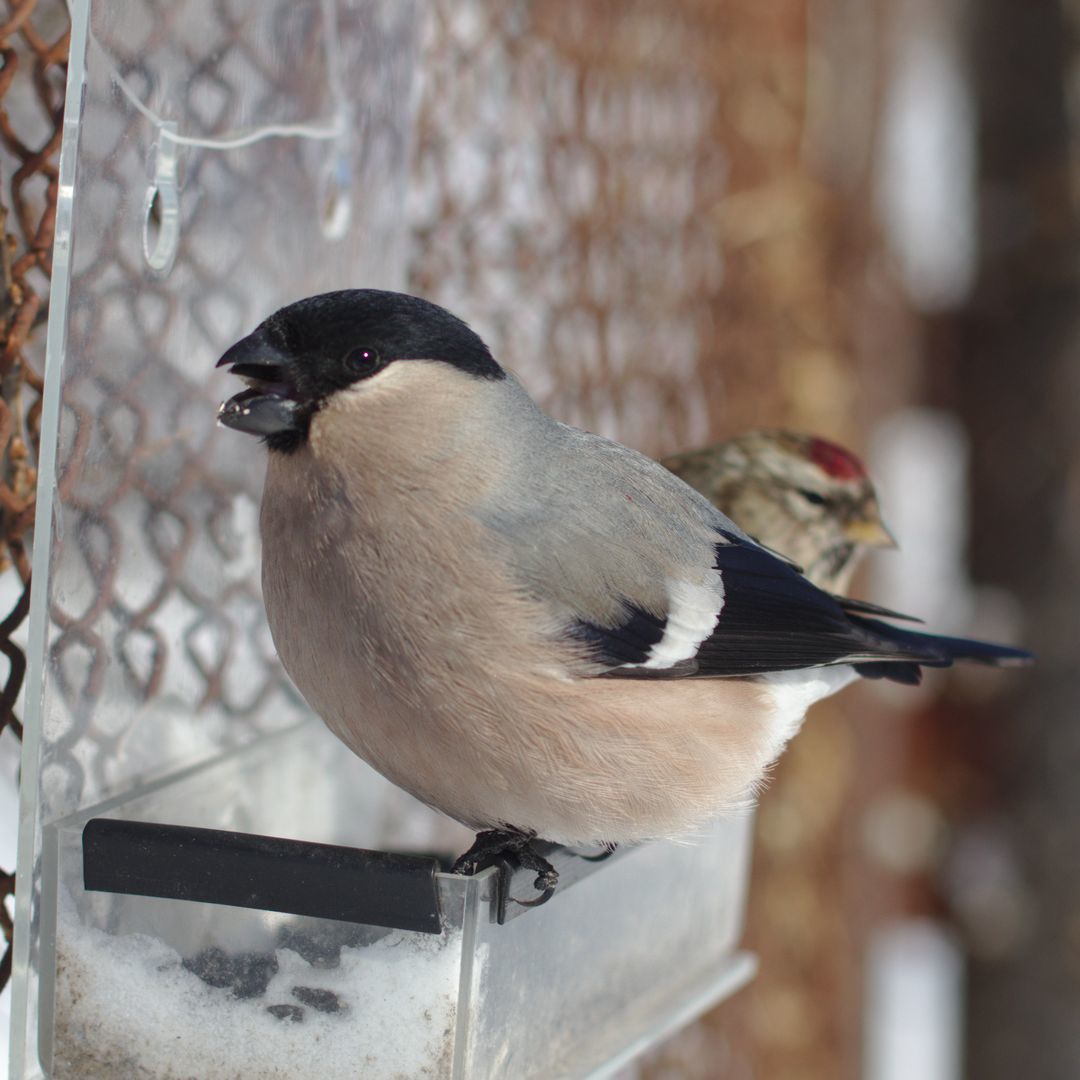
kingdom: Animalia
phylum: Chordata
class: Aves
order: Passeriformes
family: Fringillidae
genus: Pyrrhula
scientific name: Pyrrhula pyrrhula
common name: Eurasian bullfinch
